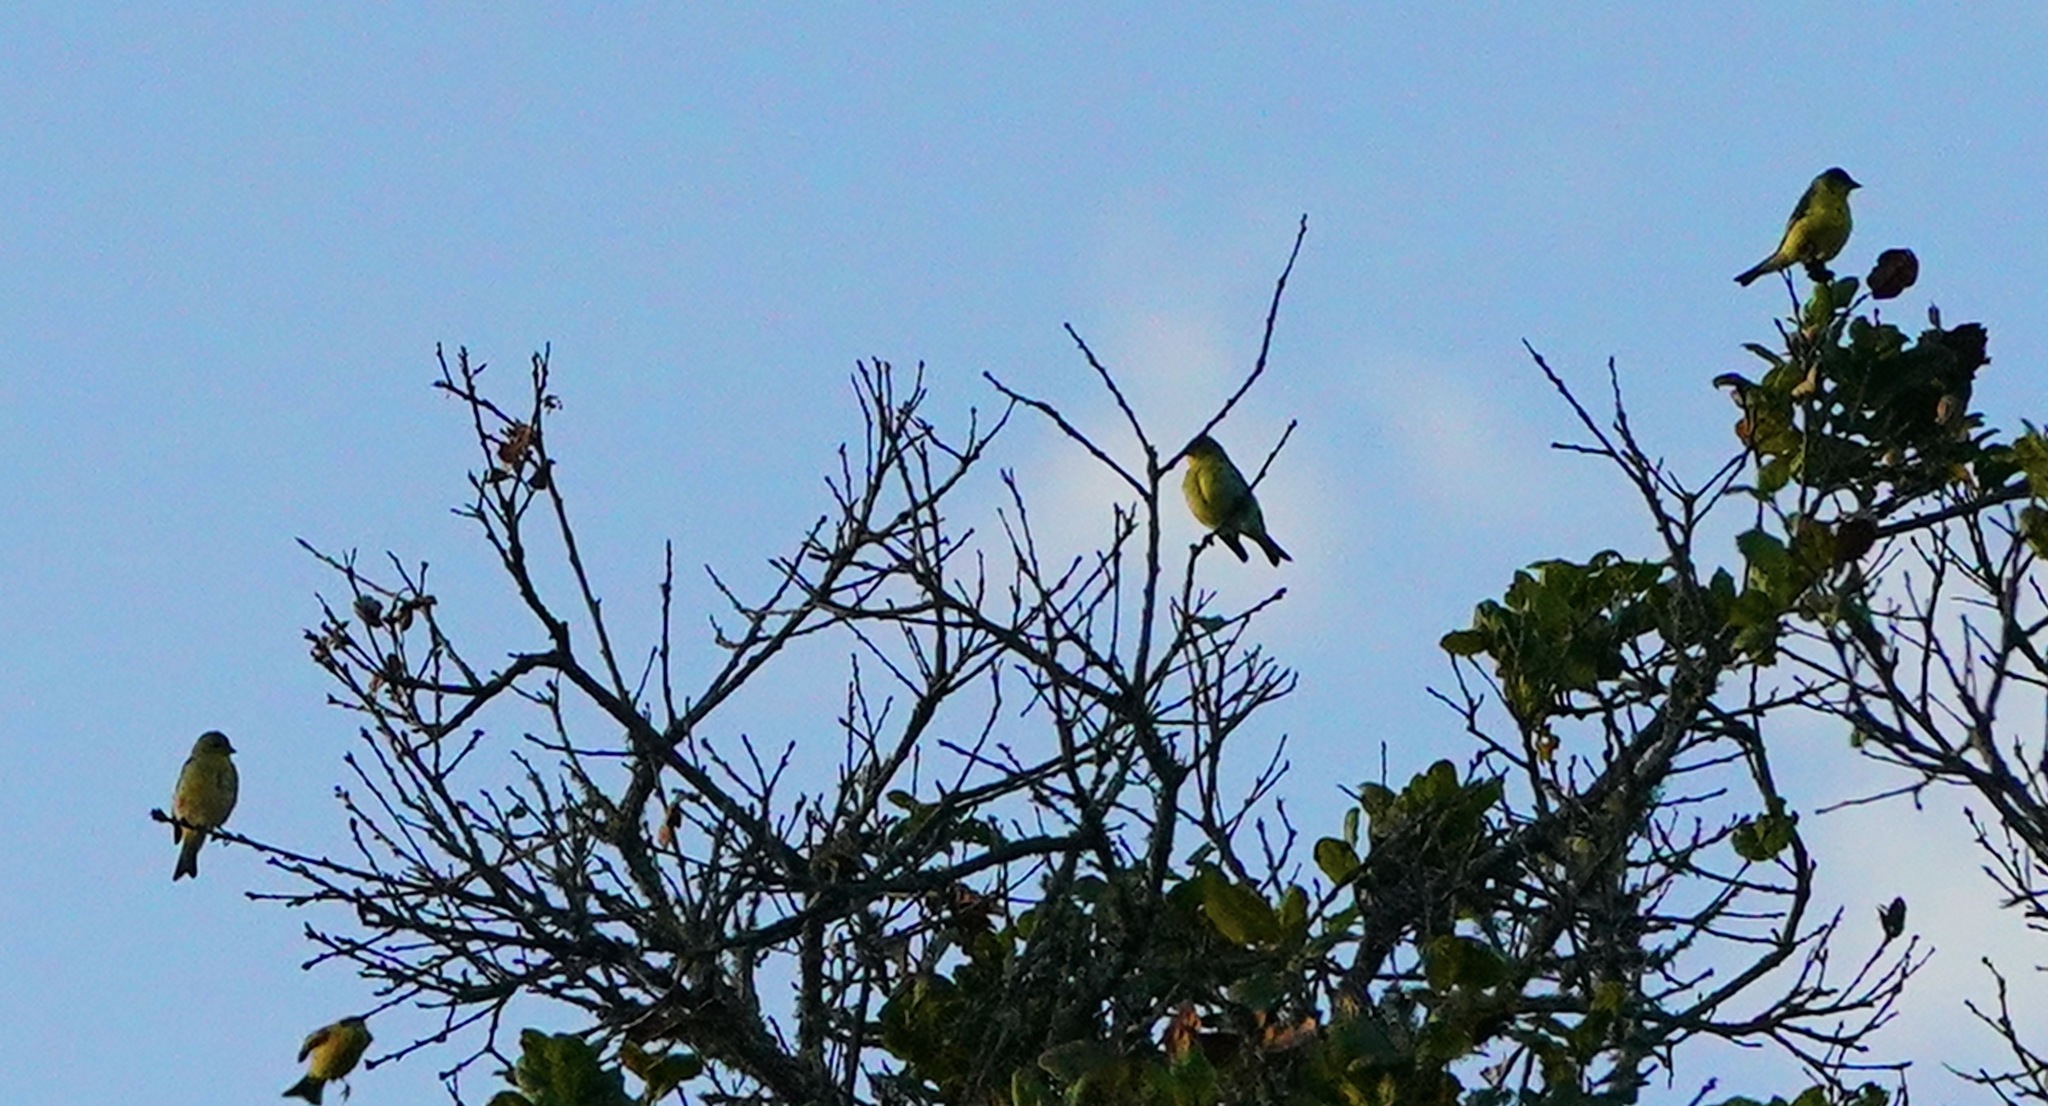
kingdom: Animalia
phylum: Chordata
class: Aves
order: Passeriformes
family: Fringillidae
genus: Spinus
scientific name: Spinus psaltria
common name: Lesser goldfinch
